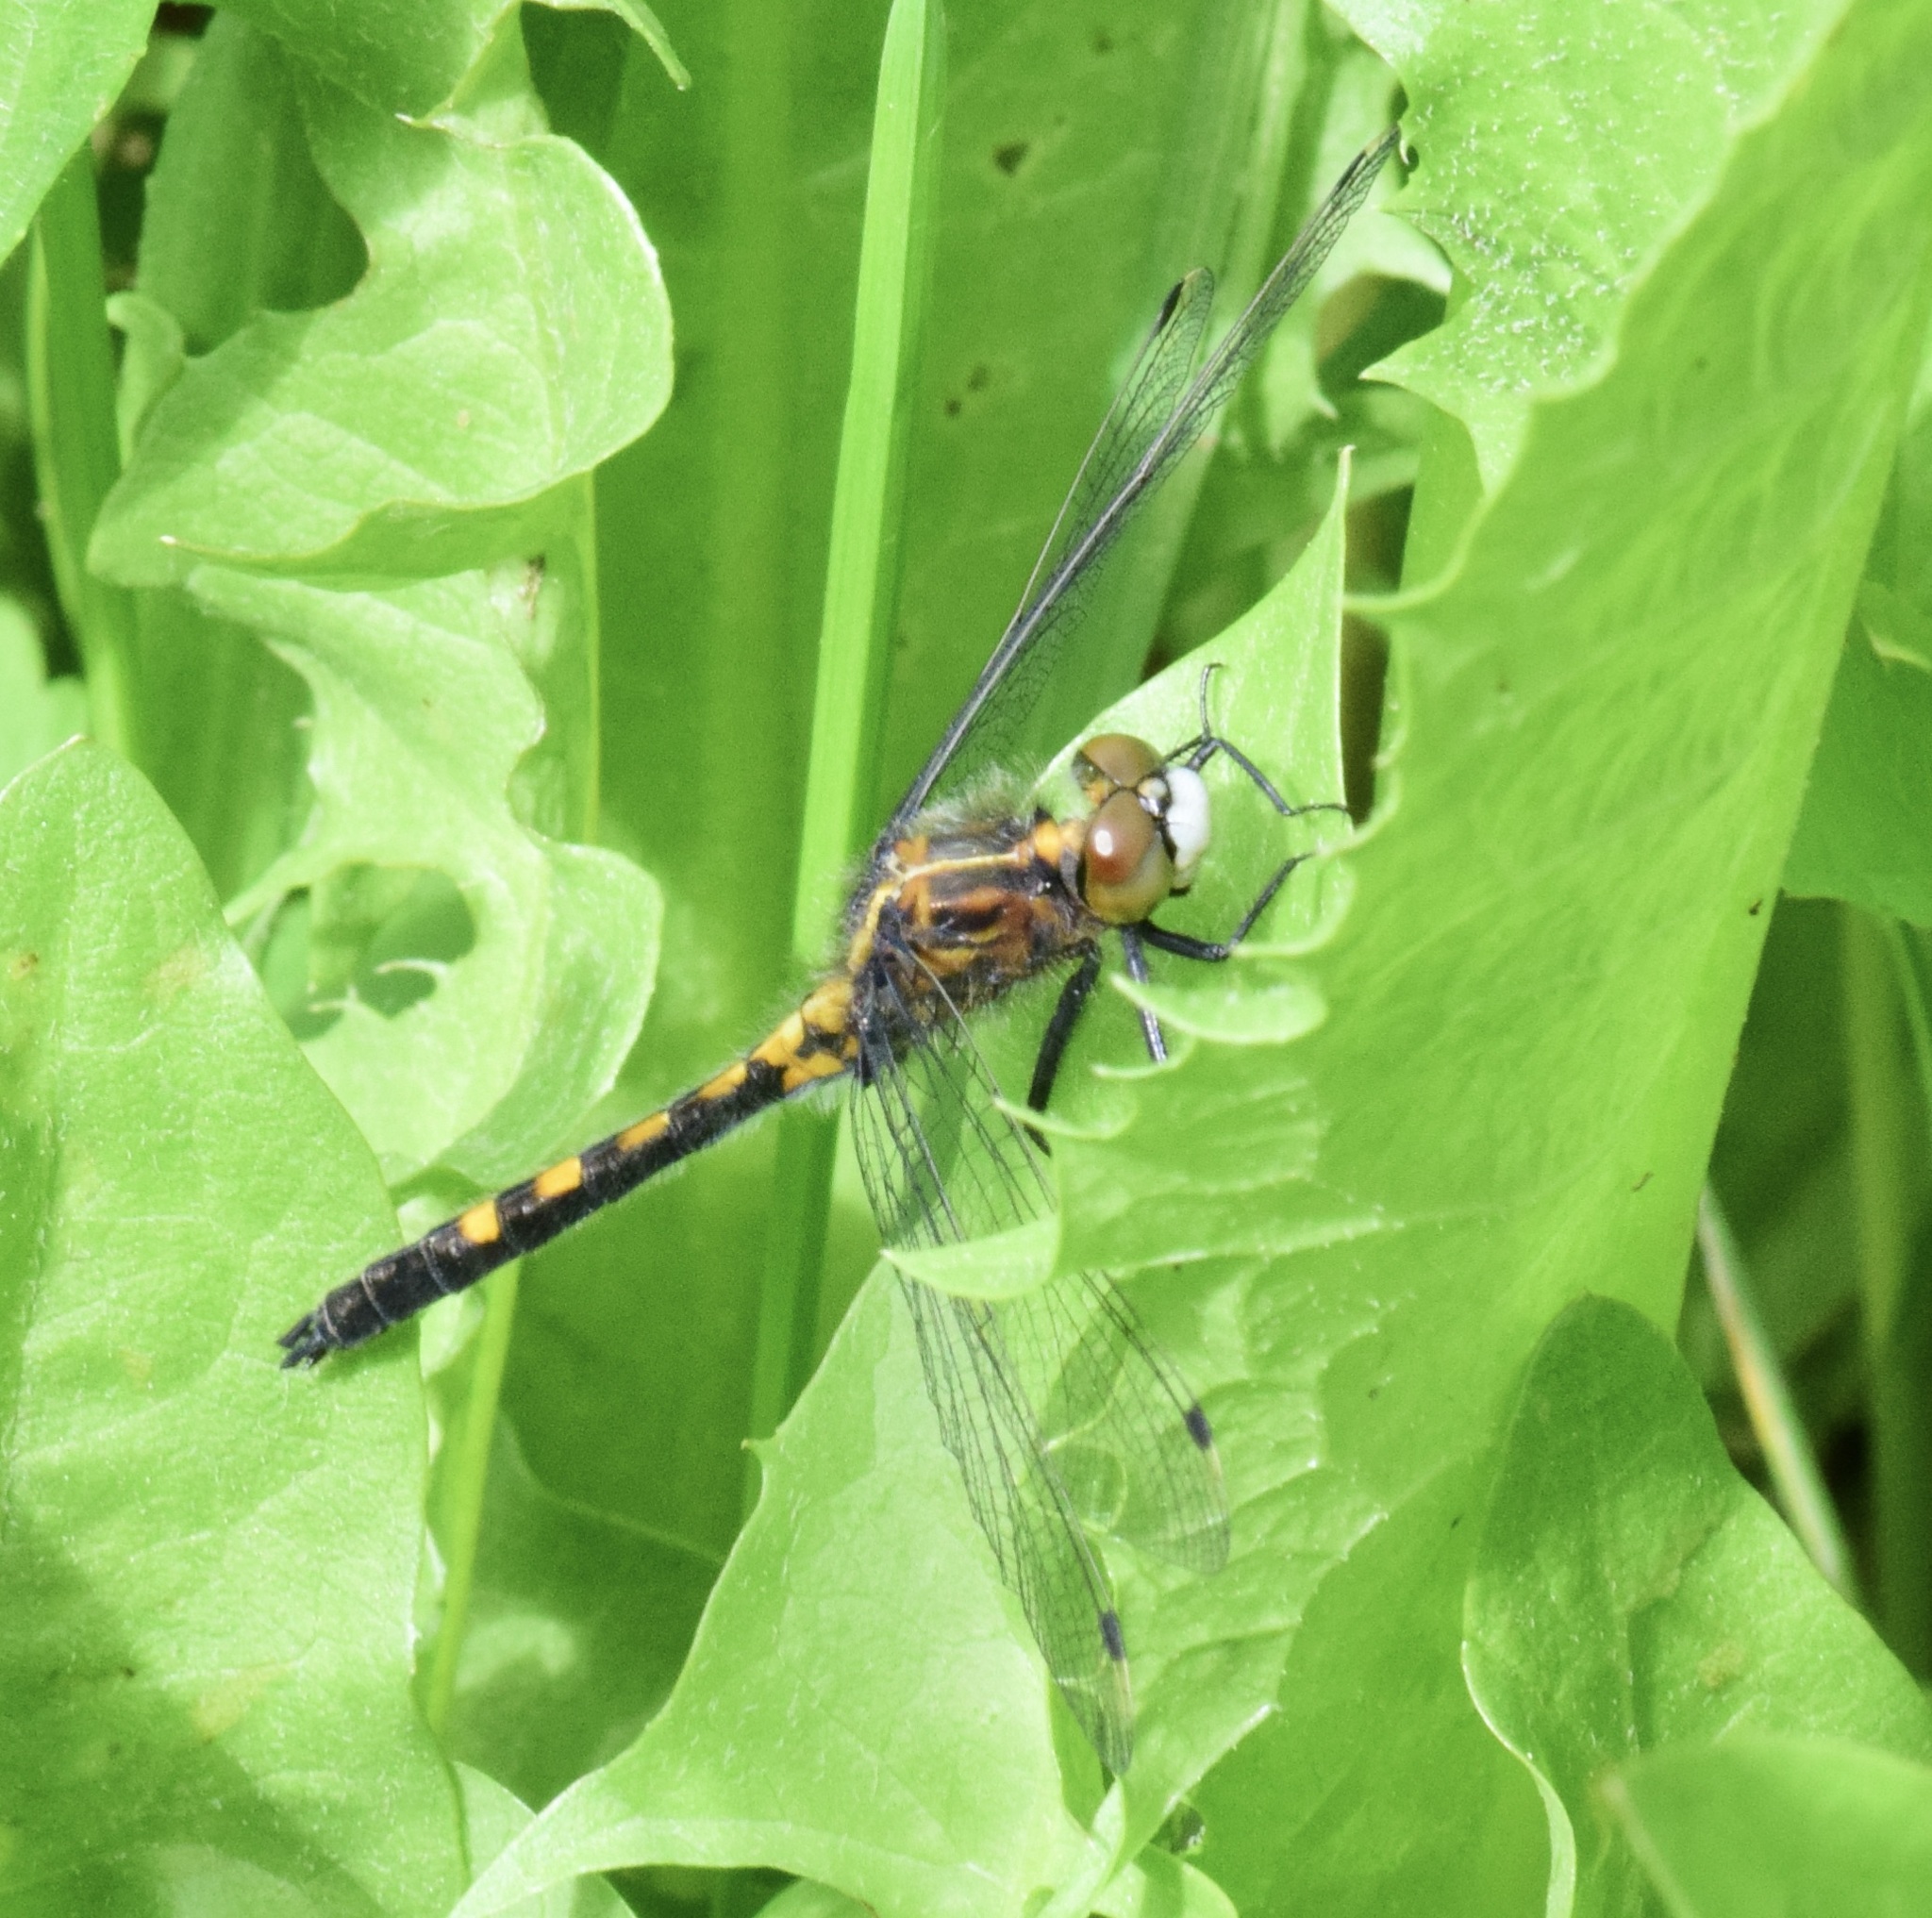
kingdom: Animalia
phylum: Arthropoda
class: Insecta
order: Odonata
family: Libellulidae
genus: Leucorrhinia
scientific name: Leucorrhinia intacta
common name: Dot-tailed whiteface
